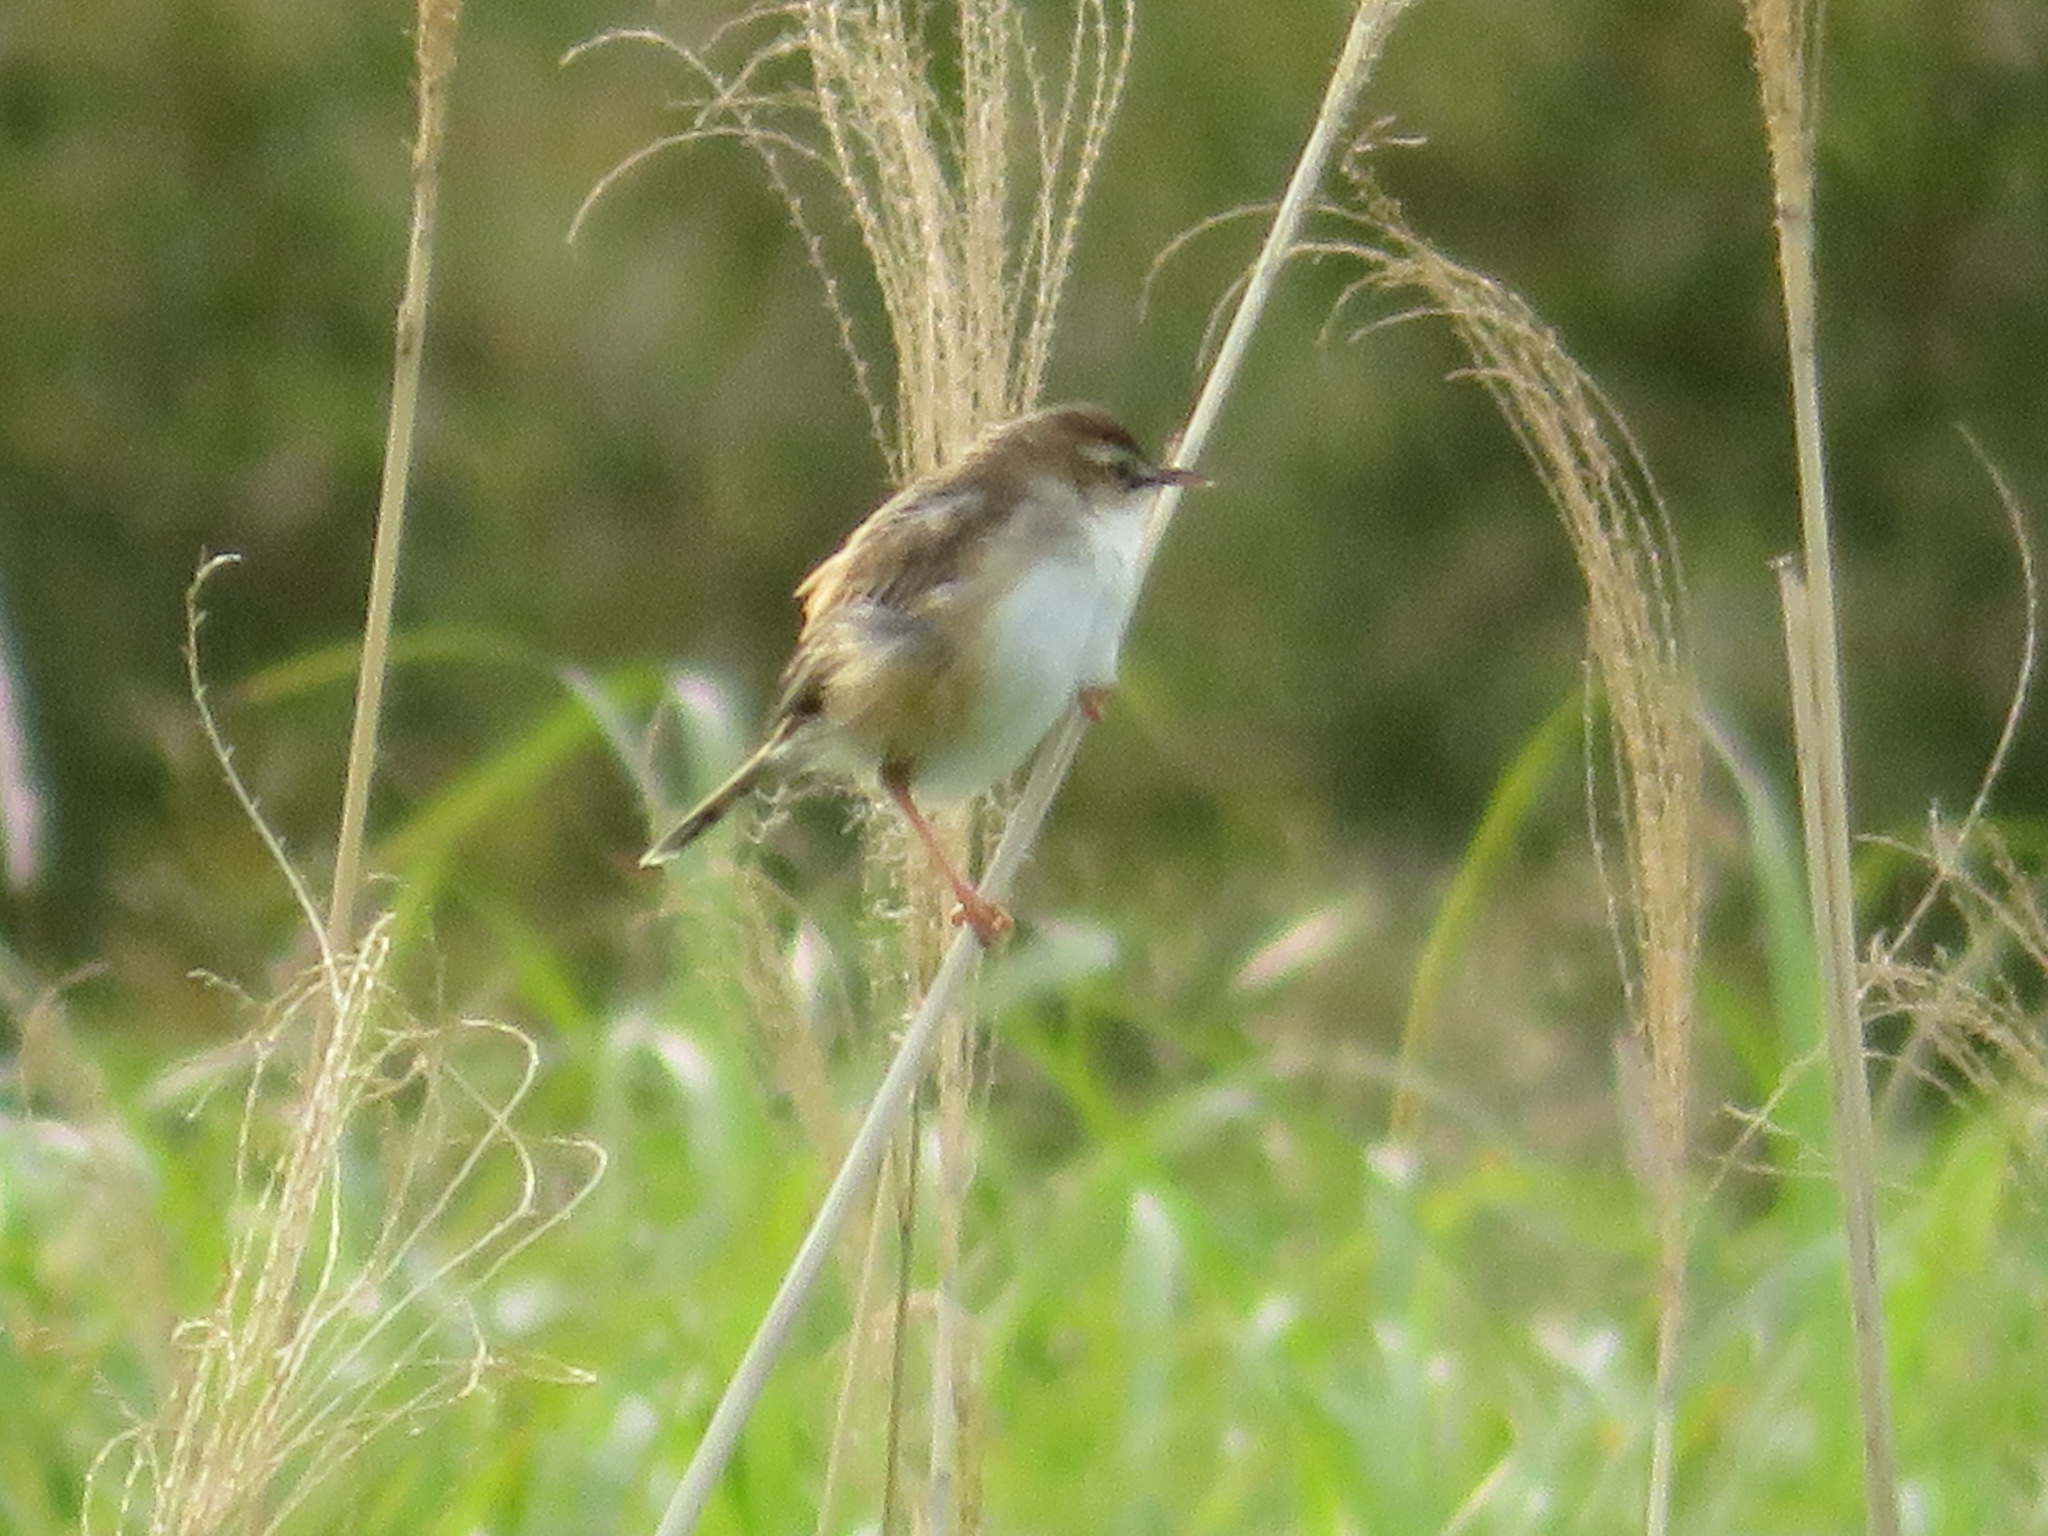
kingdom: Animalia
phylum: Chordata
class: Aves
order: Passeriformes
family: Cisticolidae
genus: Cisticola
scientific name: Cisticola juncidis
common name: Zitting cisticola
